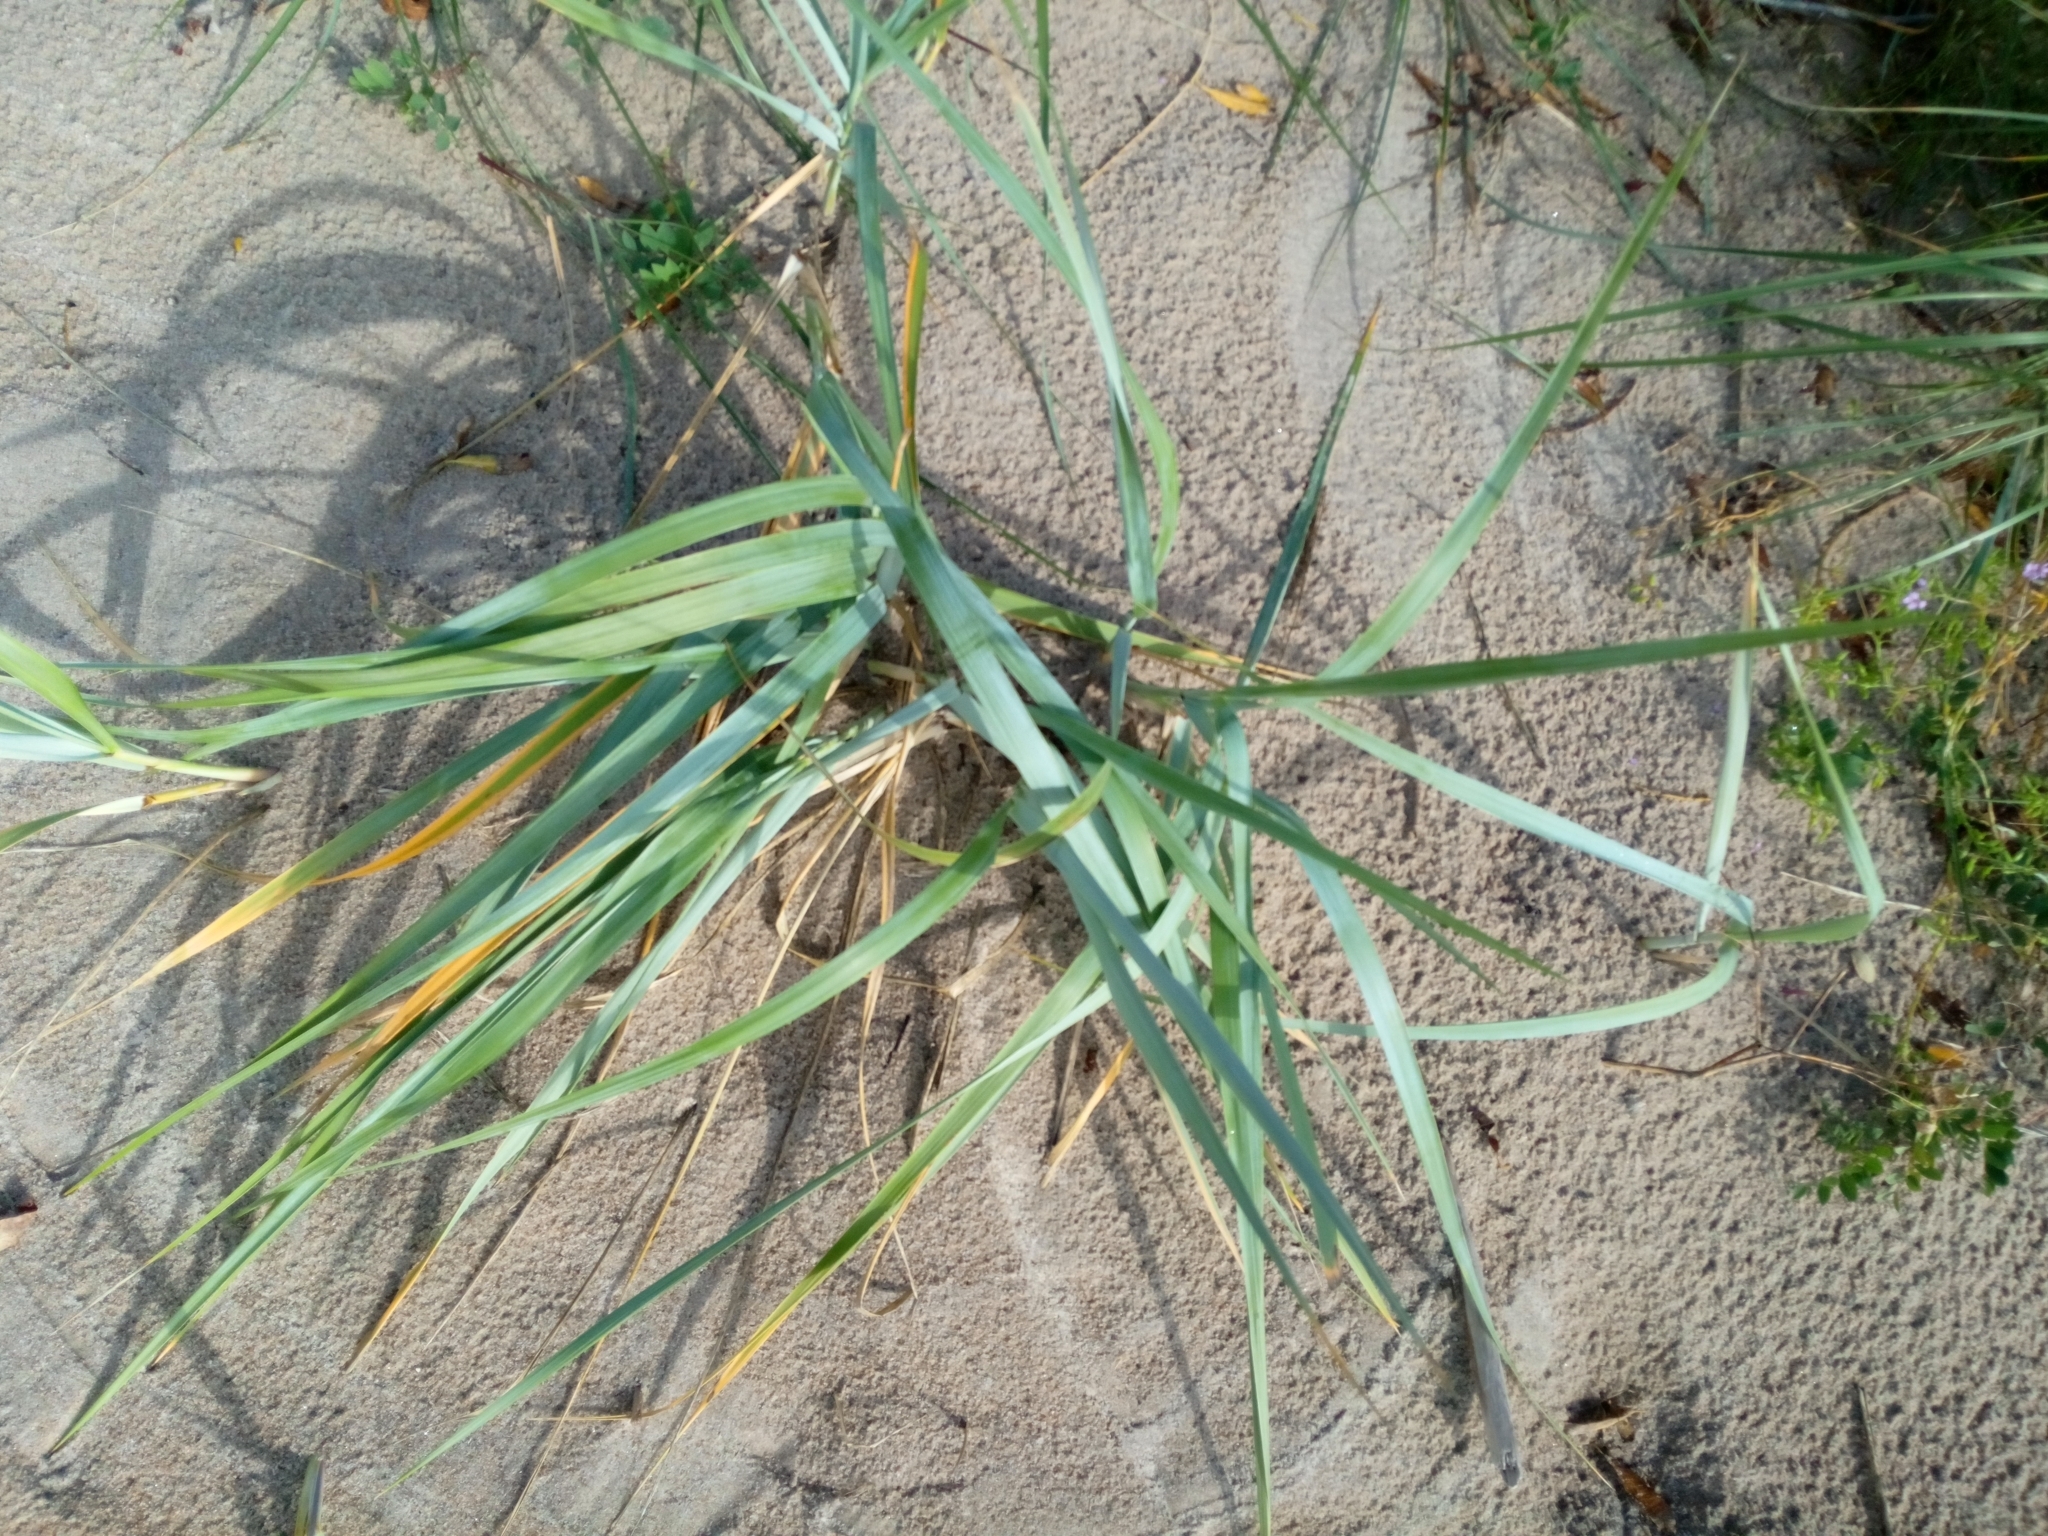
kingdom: Plantae
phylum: Tracheophyta
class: Liliopsida
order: Poales
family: Poaceae
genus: Leymus
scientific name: Leymus arenarius
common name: Lyme-grass
